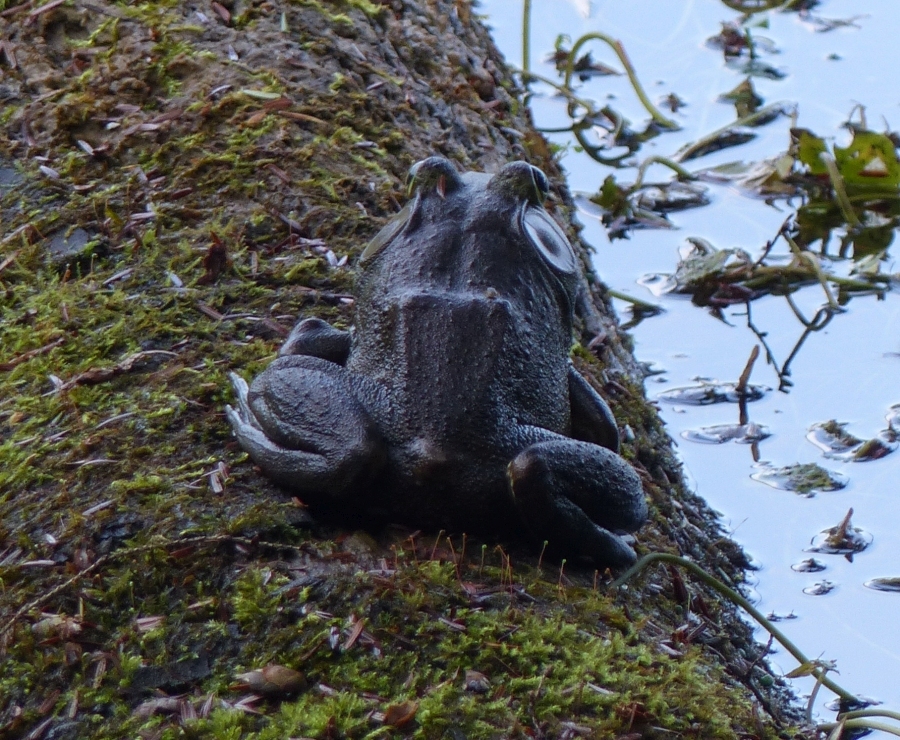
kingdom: Animalia
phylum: Chordata
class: Amphibia
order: Anura
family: Ranidae
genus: Lithobates
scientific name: Lithobates catesbeianus
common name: American bullfrog
